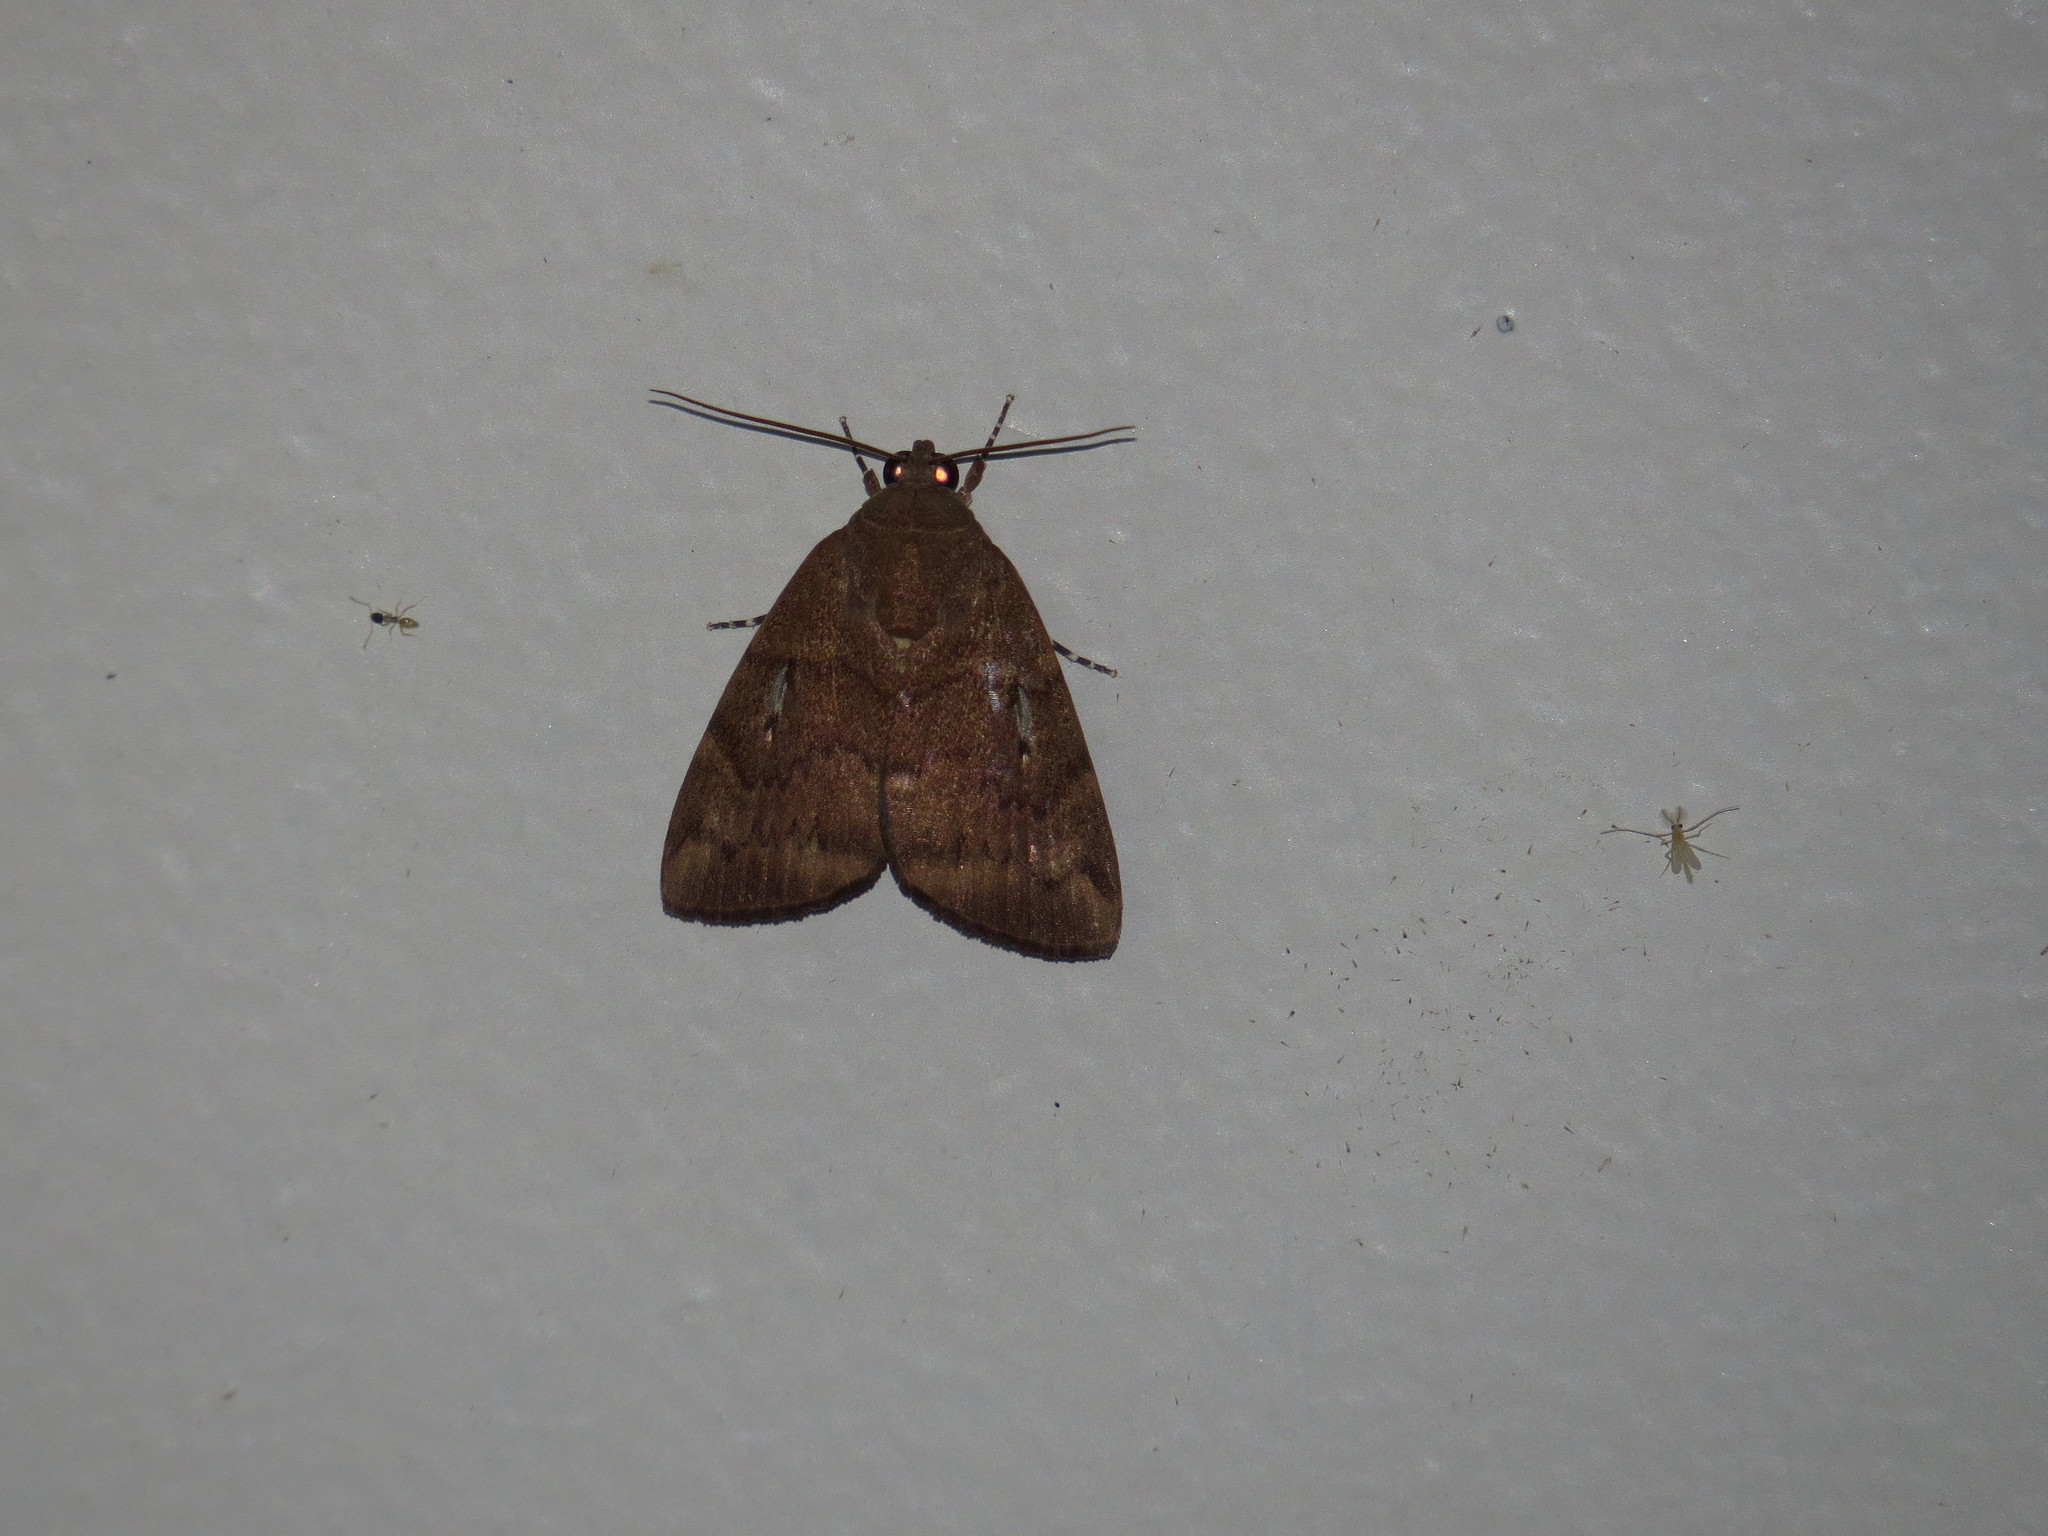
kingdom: Animalia
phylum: Arthropoda
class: Insecta
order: Lepidoptera
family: Nolidae
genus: Maceda
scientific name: Maceda mansueta
